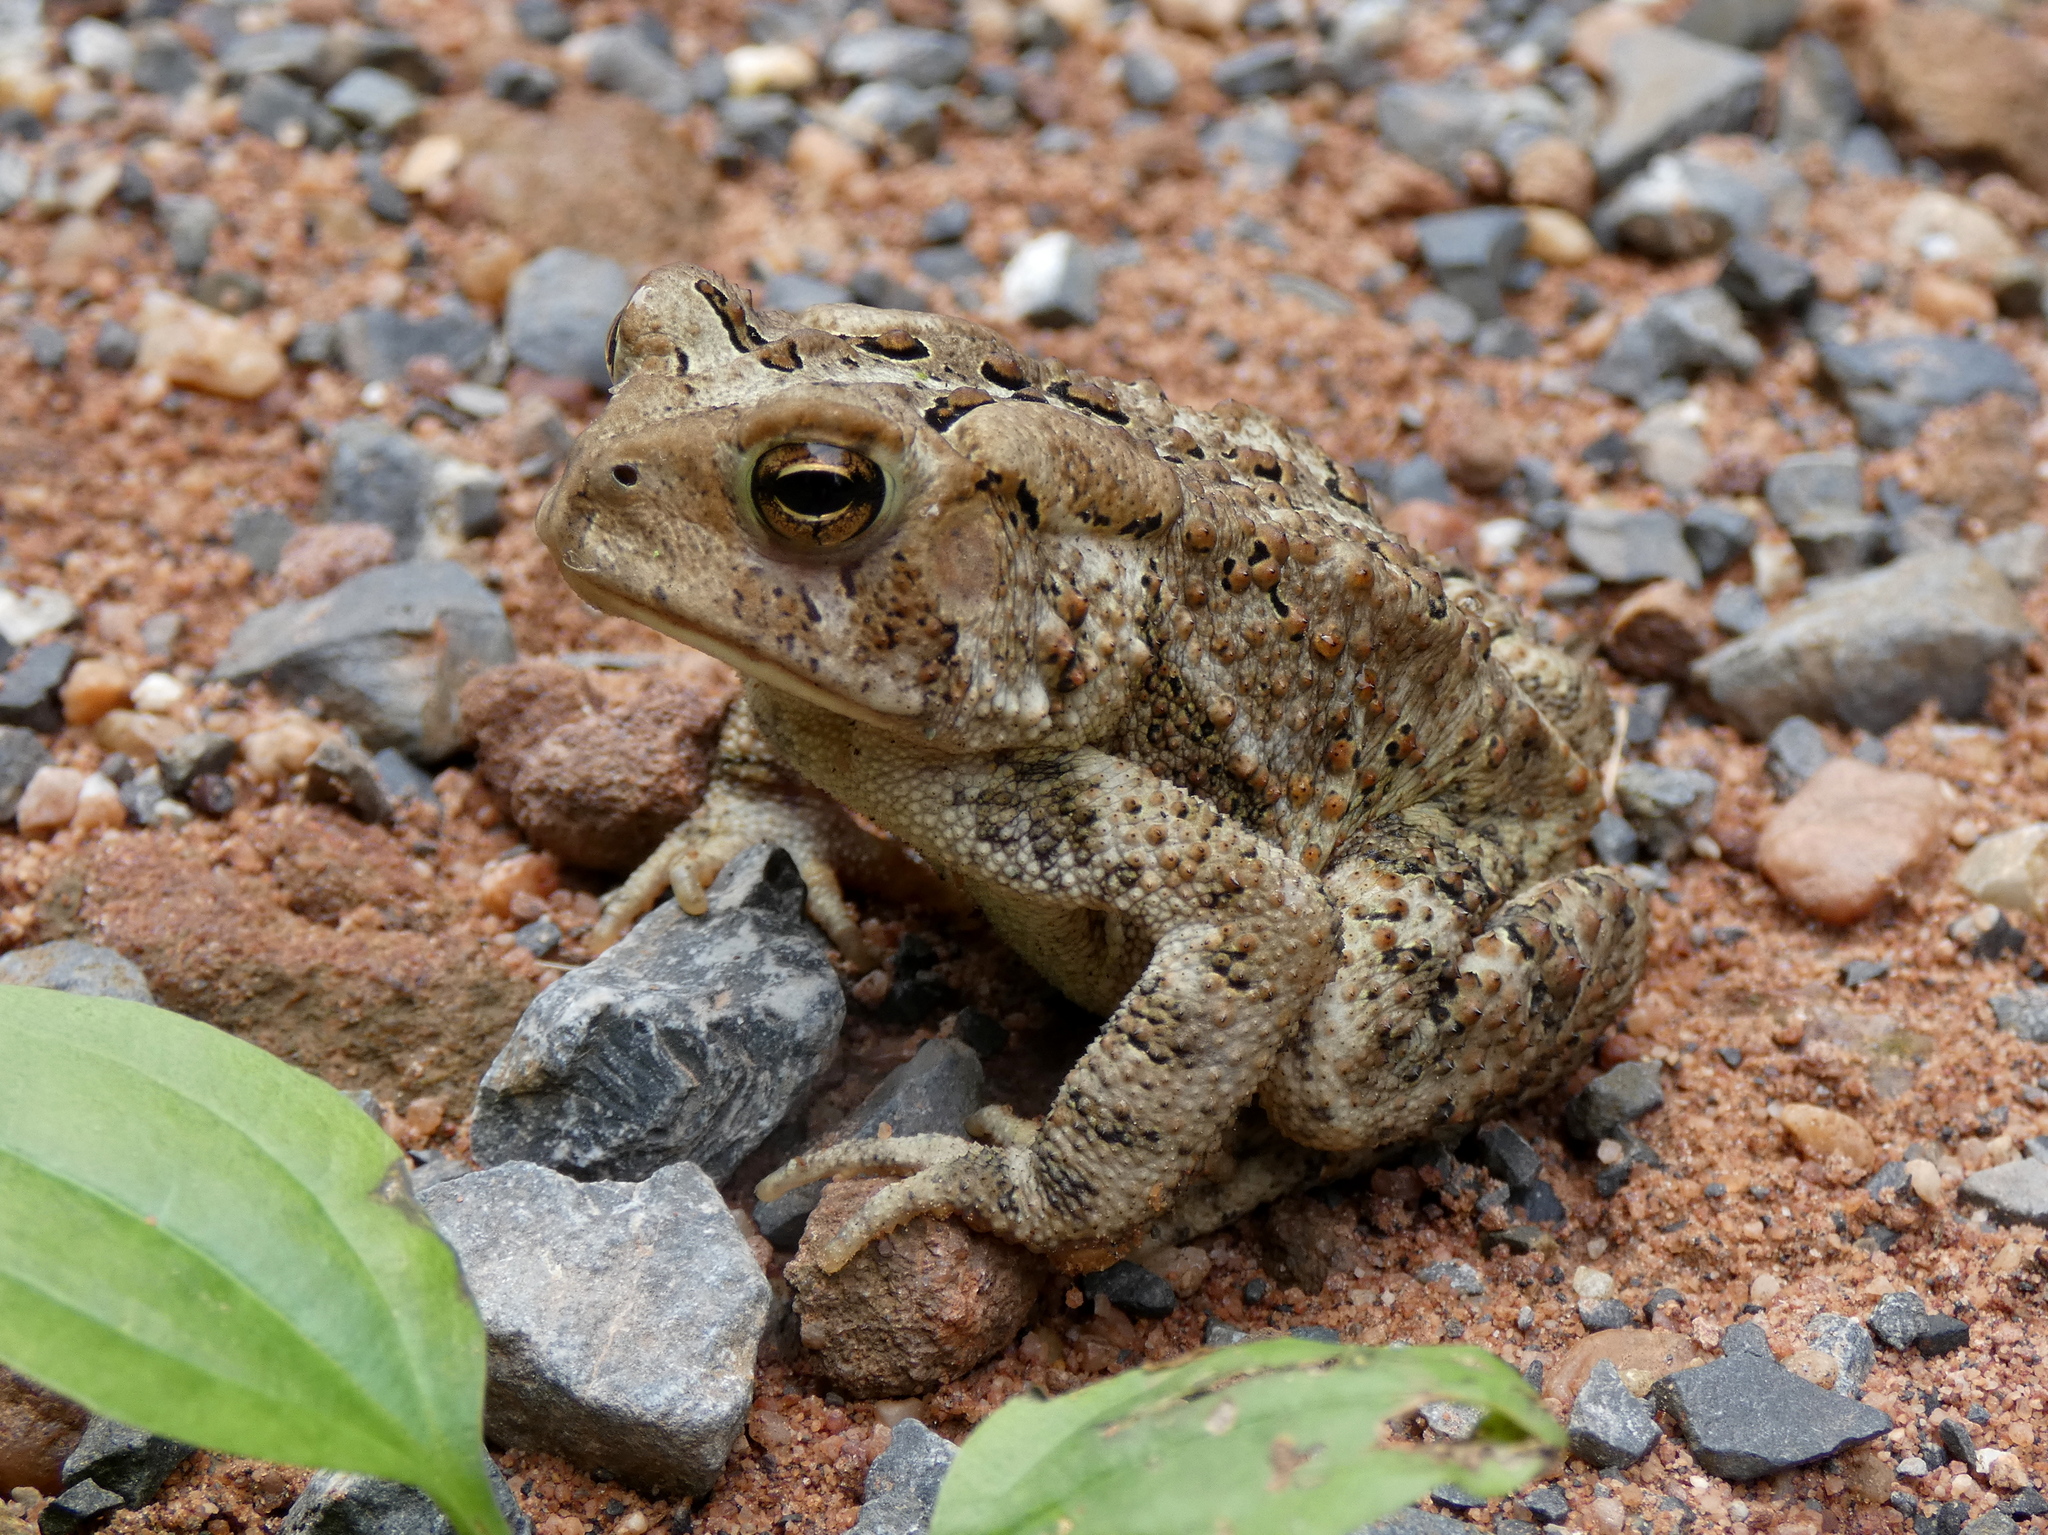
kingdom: Animalia
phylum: Chordata
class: Amphibia
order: Anura
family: Bufonidae
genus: Anaxyrus
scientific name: Anaxyrus americanus
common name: American toad
